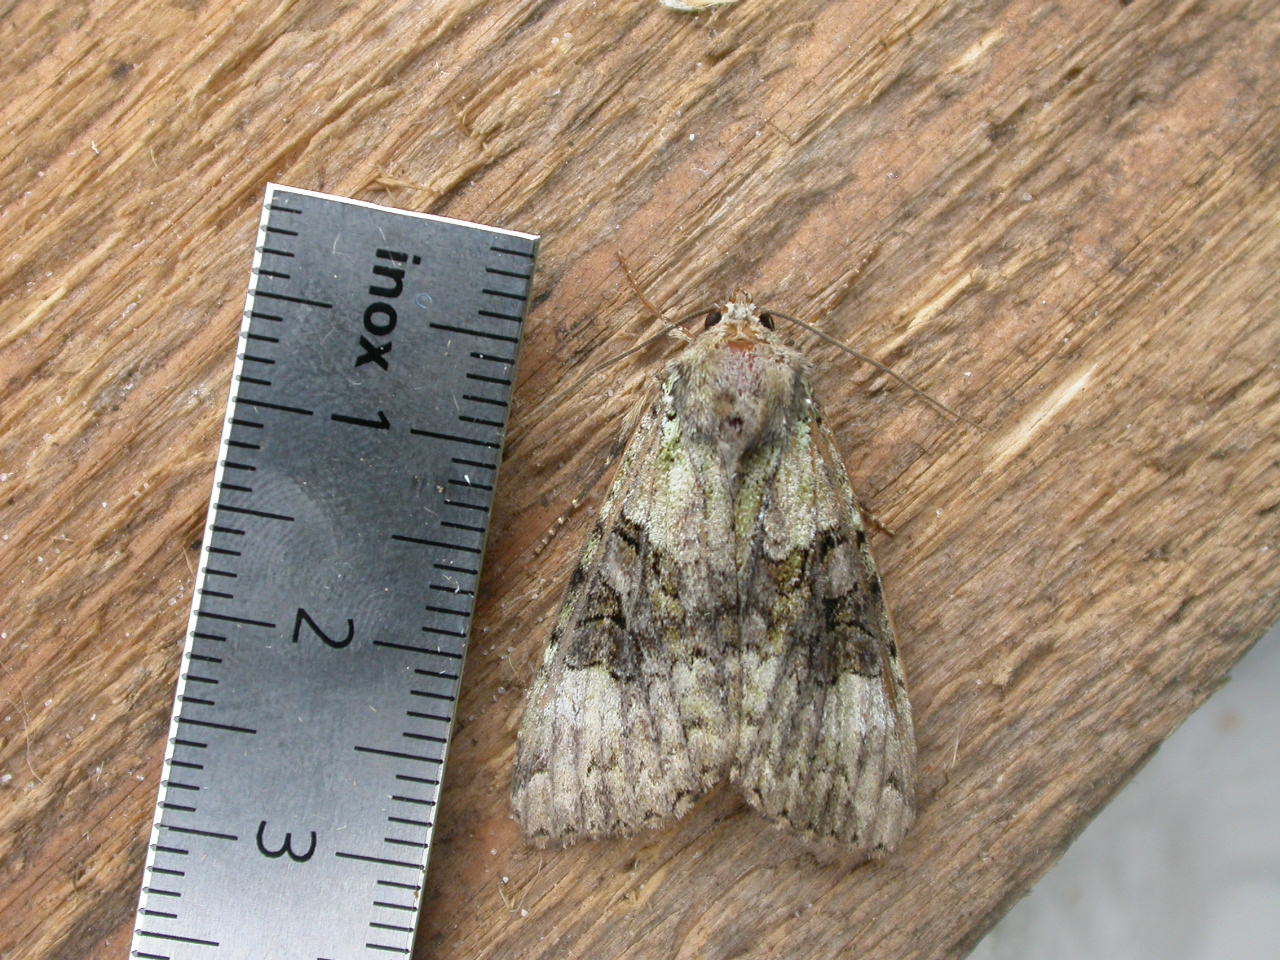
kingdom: Animalia
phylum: Arthropoda
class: Insecta
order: Lepidoptera
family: Noctuidae
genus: Anaplectoides
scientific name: Anaplectoides prasina
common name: Green arches
